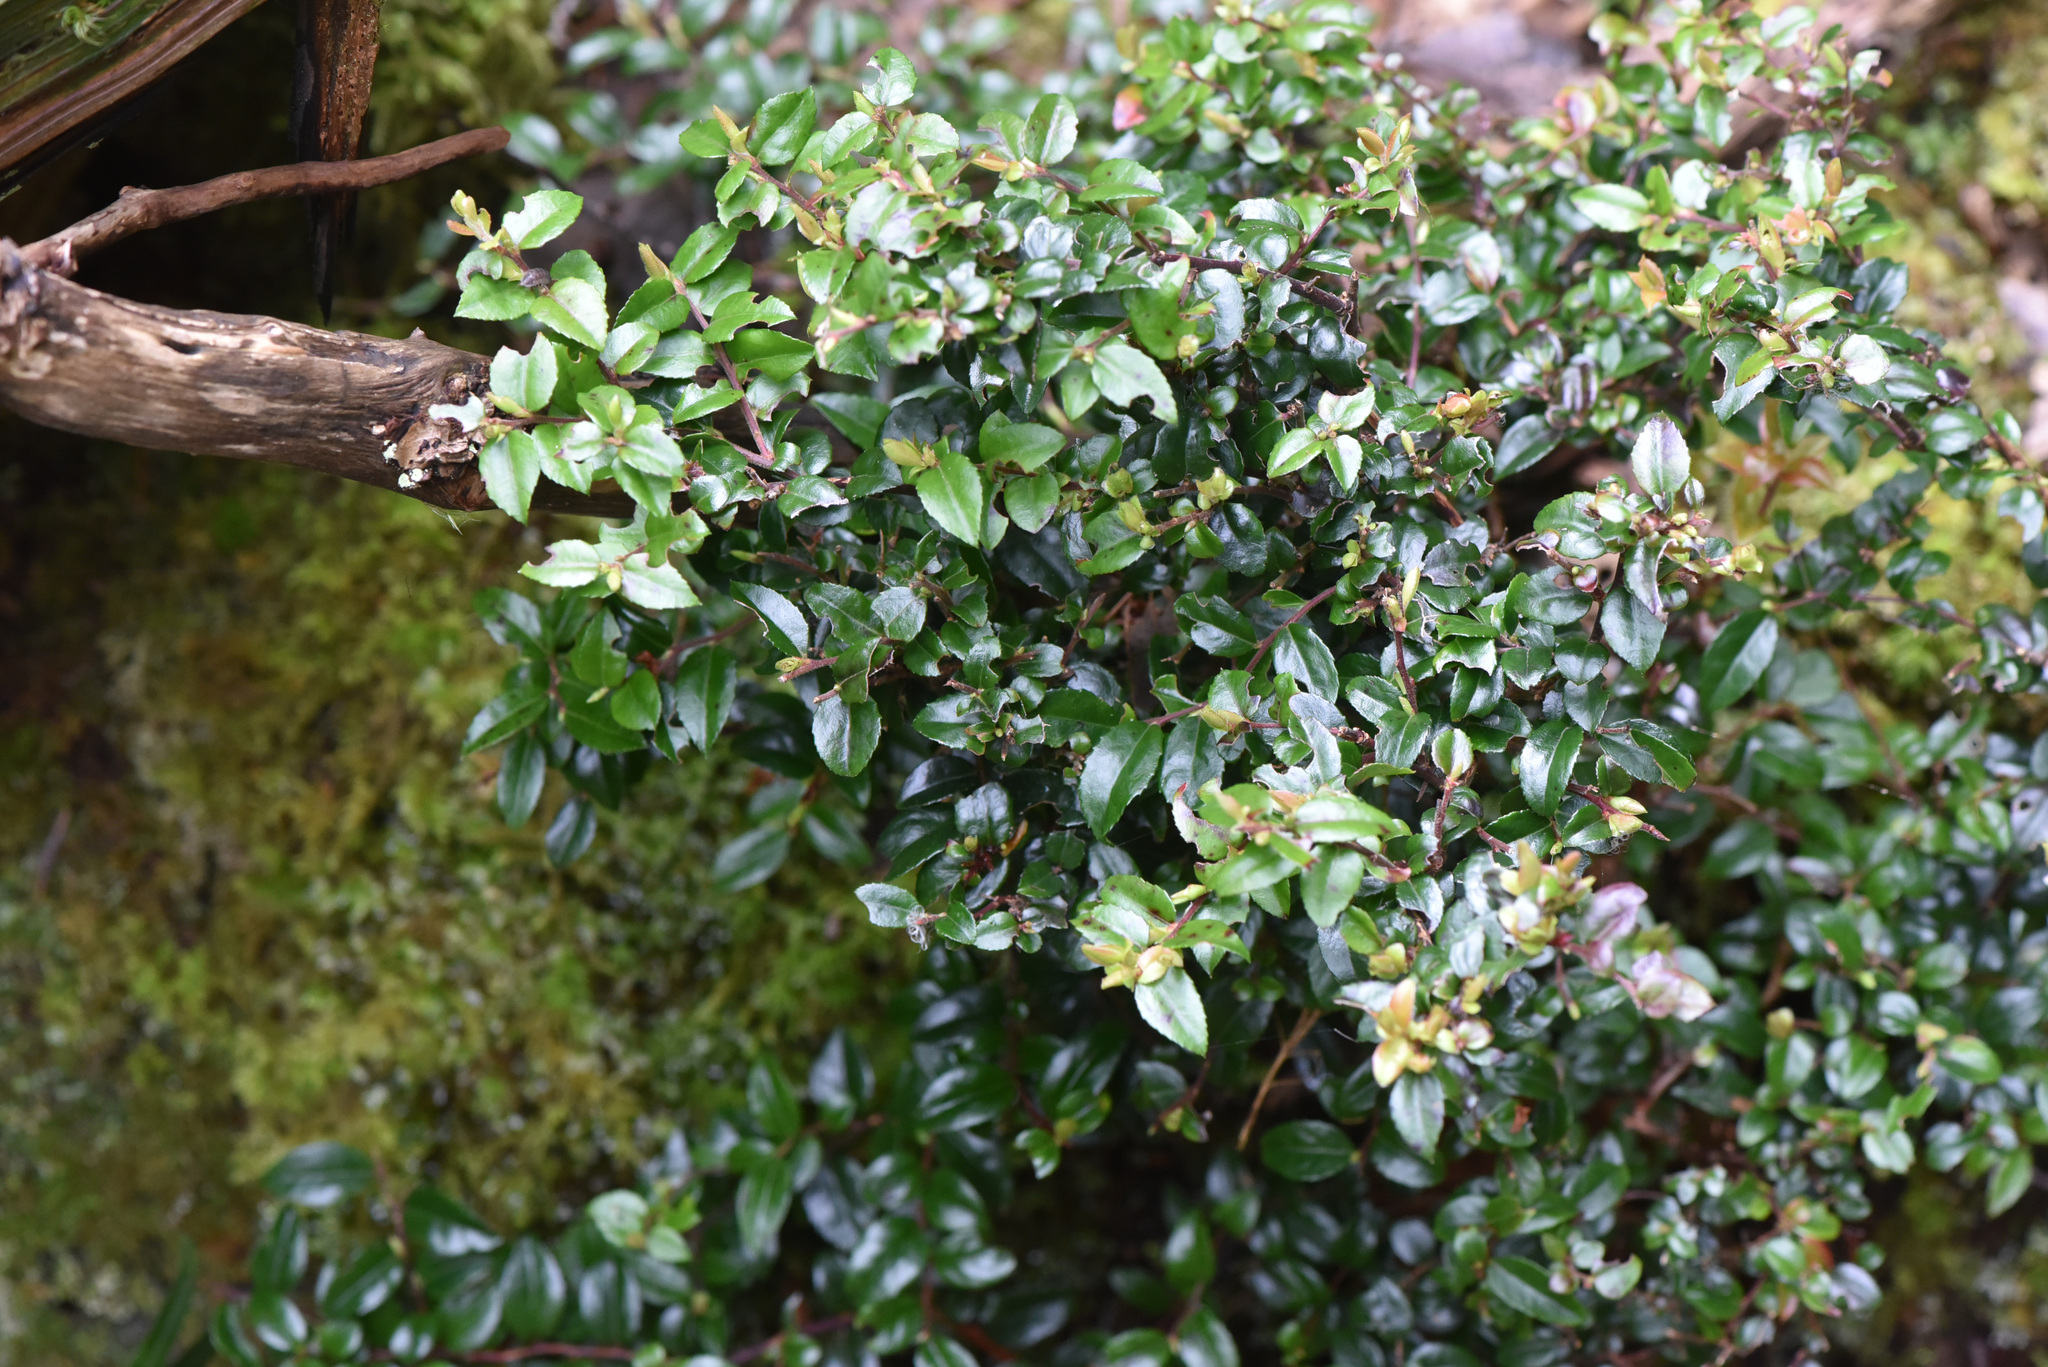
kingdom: Plantae
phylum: Tracheophyta
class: Magnoliopsida
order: Ericales
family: Ericaceae
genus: Vaccinium
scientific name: Vaccinium ovatum
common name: California-huckleberry
